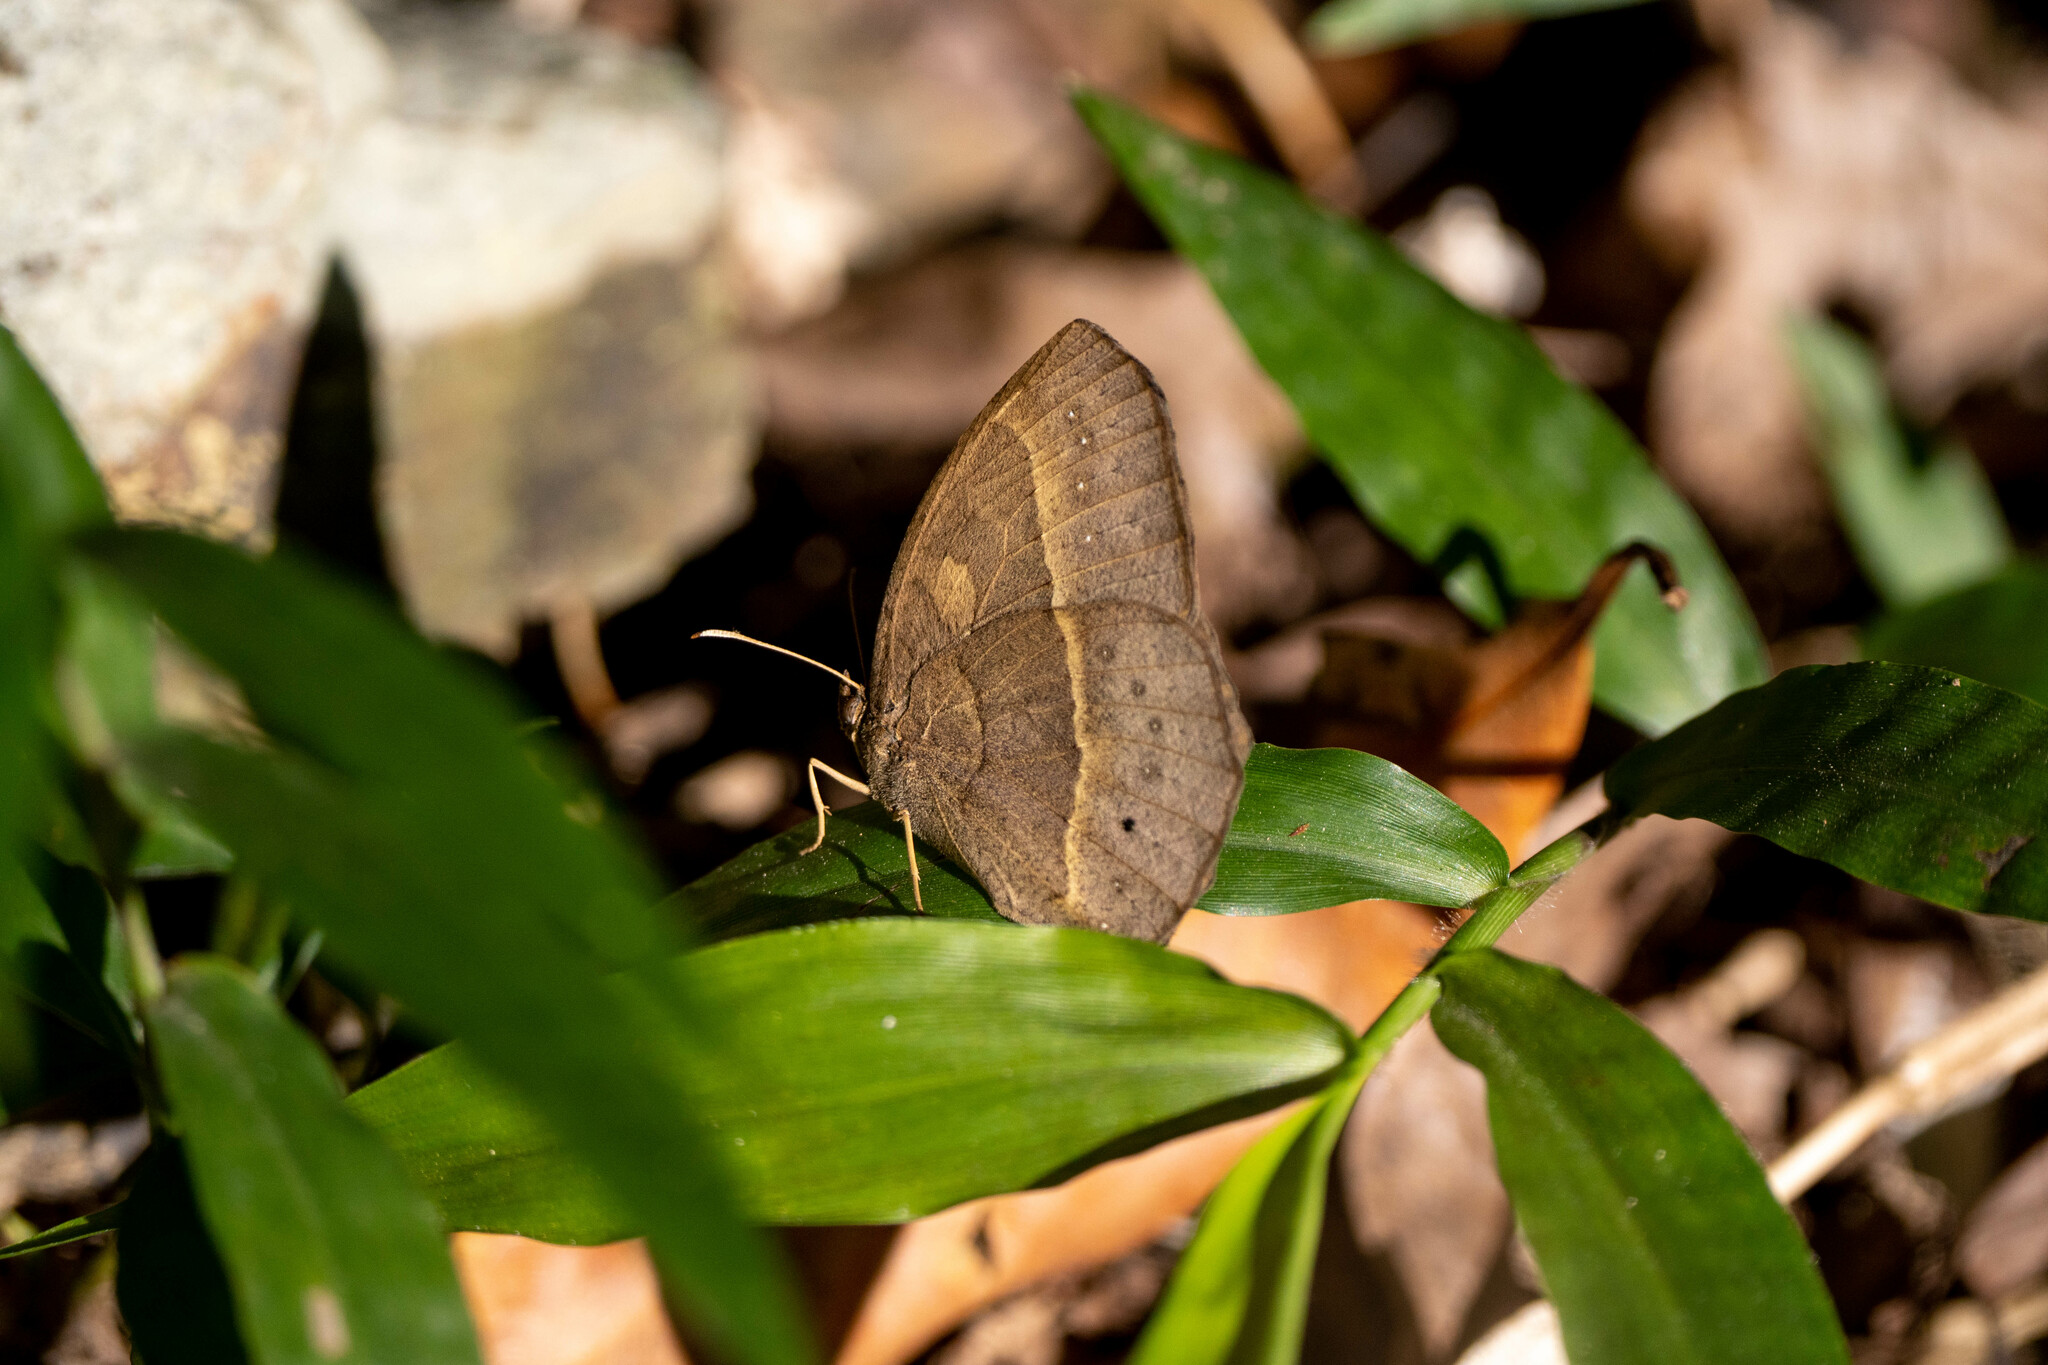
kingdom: Animalia
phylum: Arthropoda
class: Insecta
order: Lepidoptera
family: Nymphalidae
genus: Mycalesis
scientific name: Mycalesis horsfieldii
